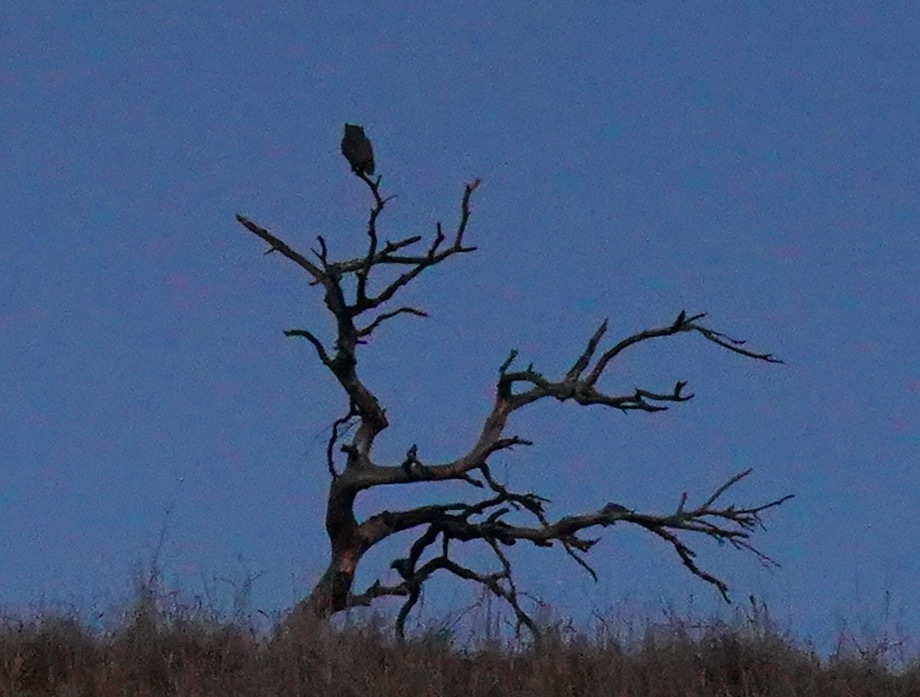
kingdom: Animalia
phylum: Chordata
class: Aves
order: Strigiformes
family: Strigidae
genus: Bubo
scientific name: Bubo virginianus
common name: Great horned owl
